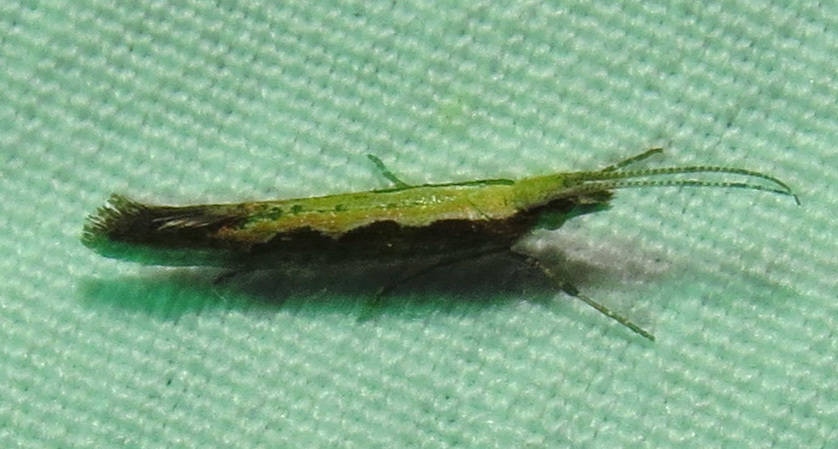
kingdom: Animalia
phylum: Arthropoda
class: Insecta
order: Lepidoptera
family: Plutellidae
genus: Plutella
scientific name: Plutella xylostella
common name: Diamond-back moth
